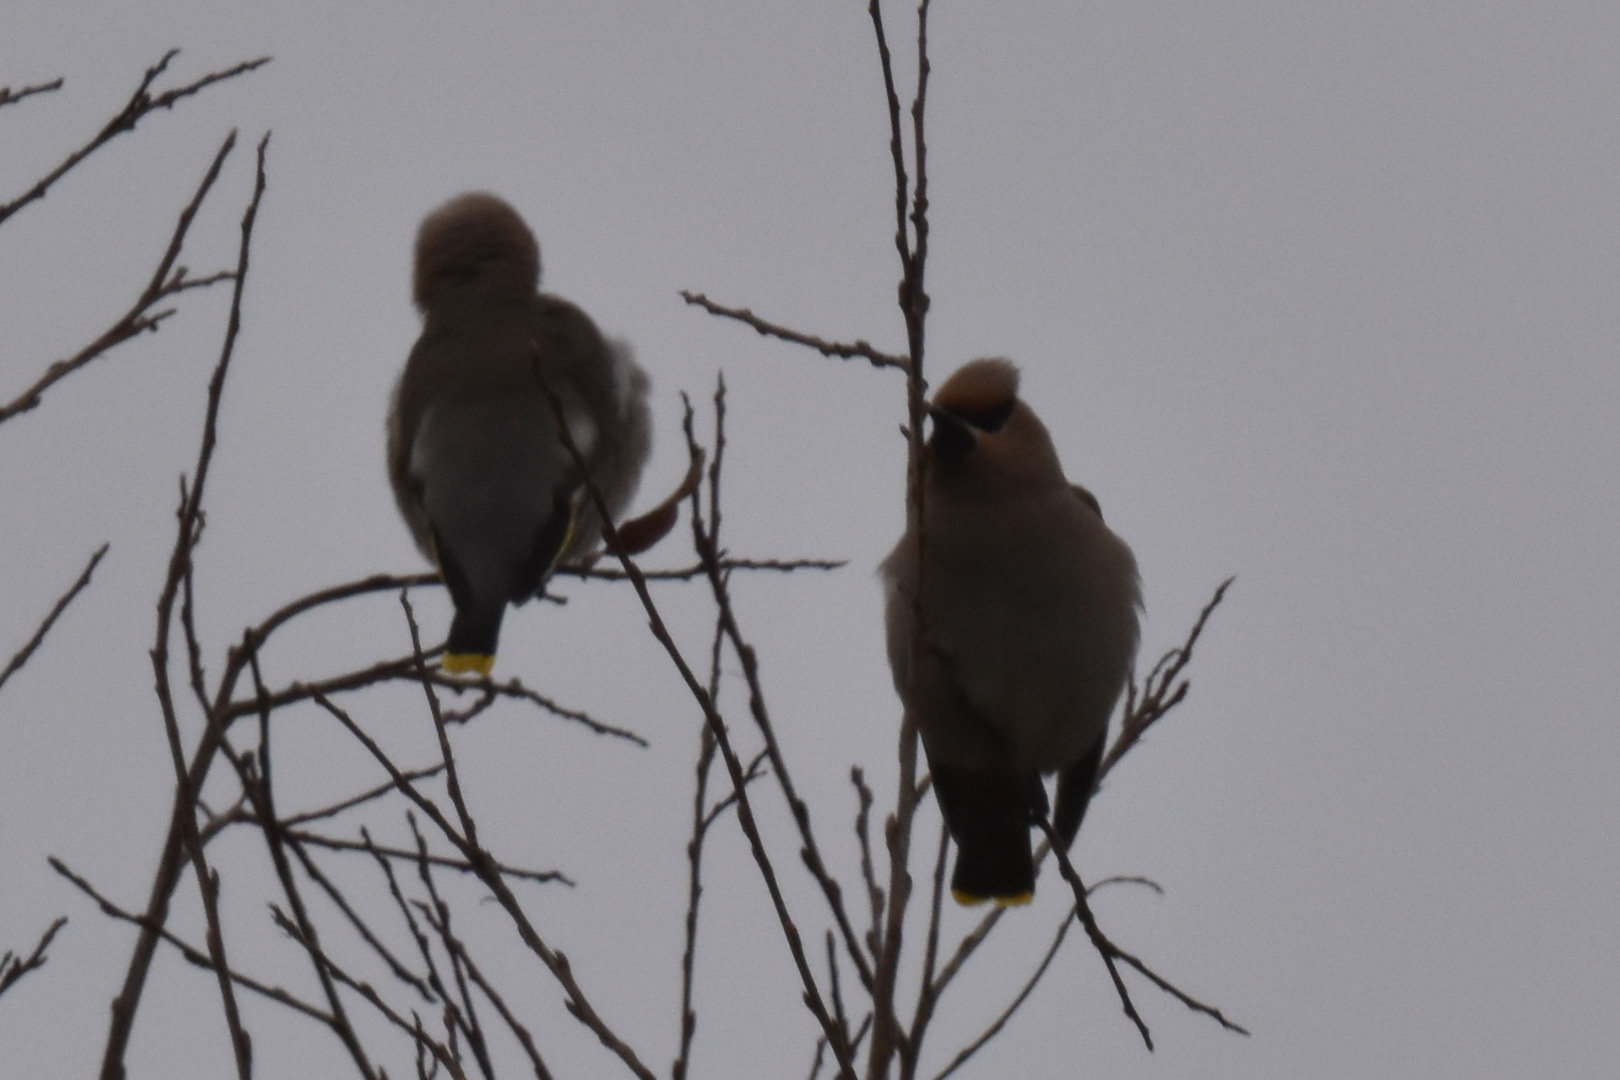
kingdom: Animalia
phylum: Chordata
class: Aves
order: Passeriformes
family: Bombycillidae
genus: Bombycilla
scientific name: Bombycilla garrulus
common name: Bohemian waxwing
